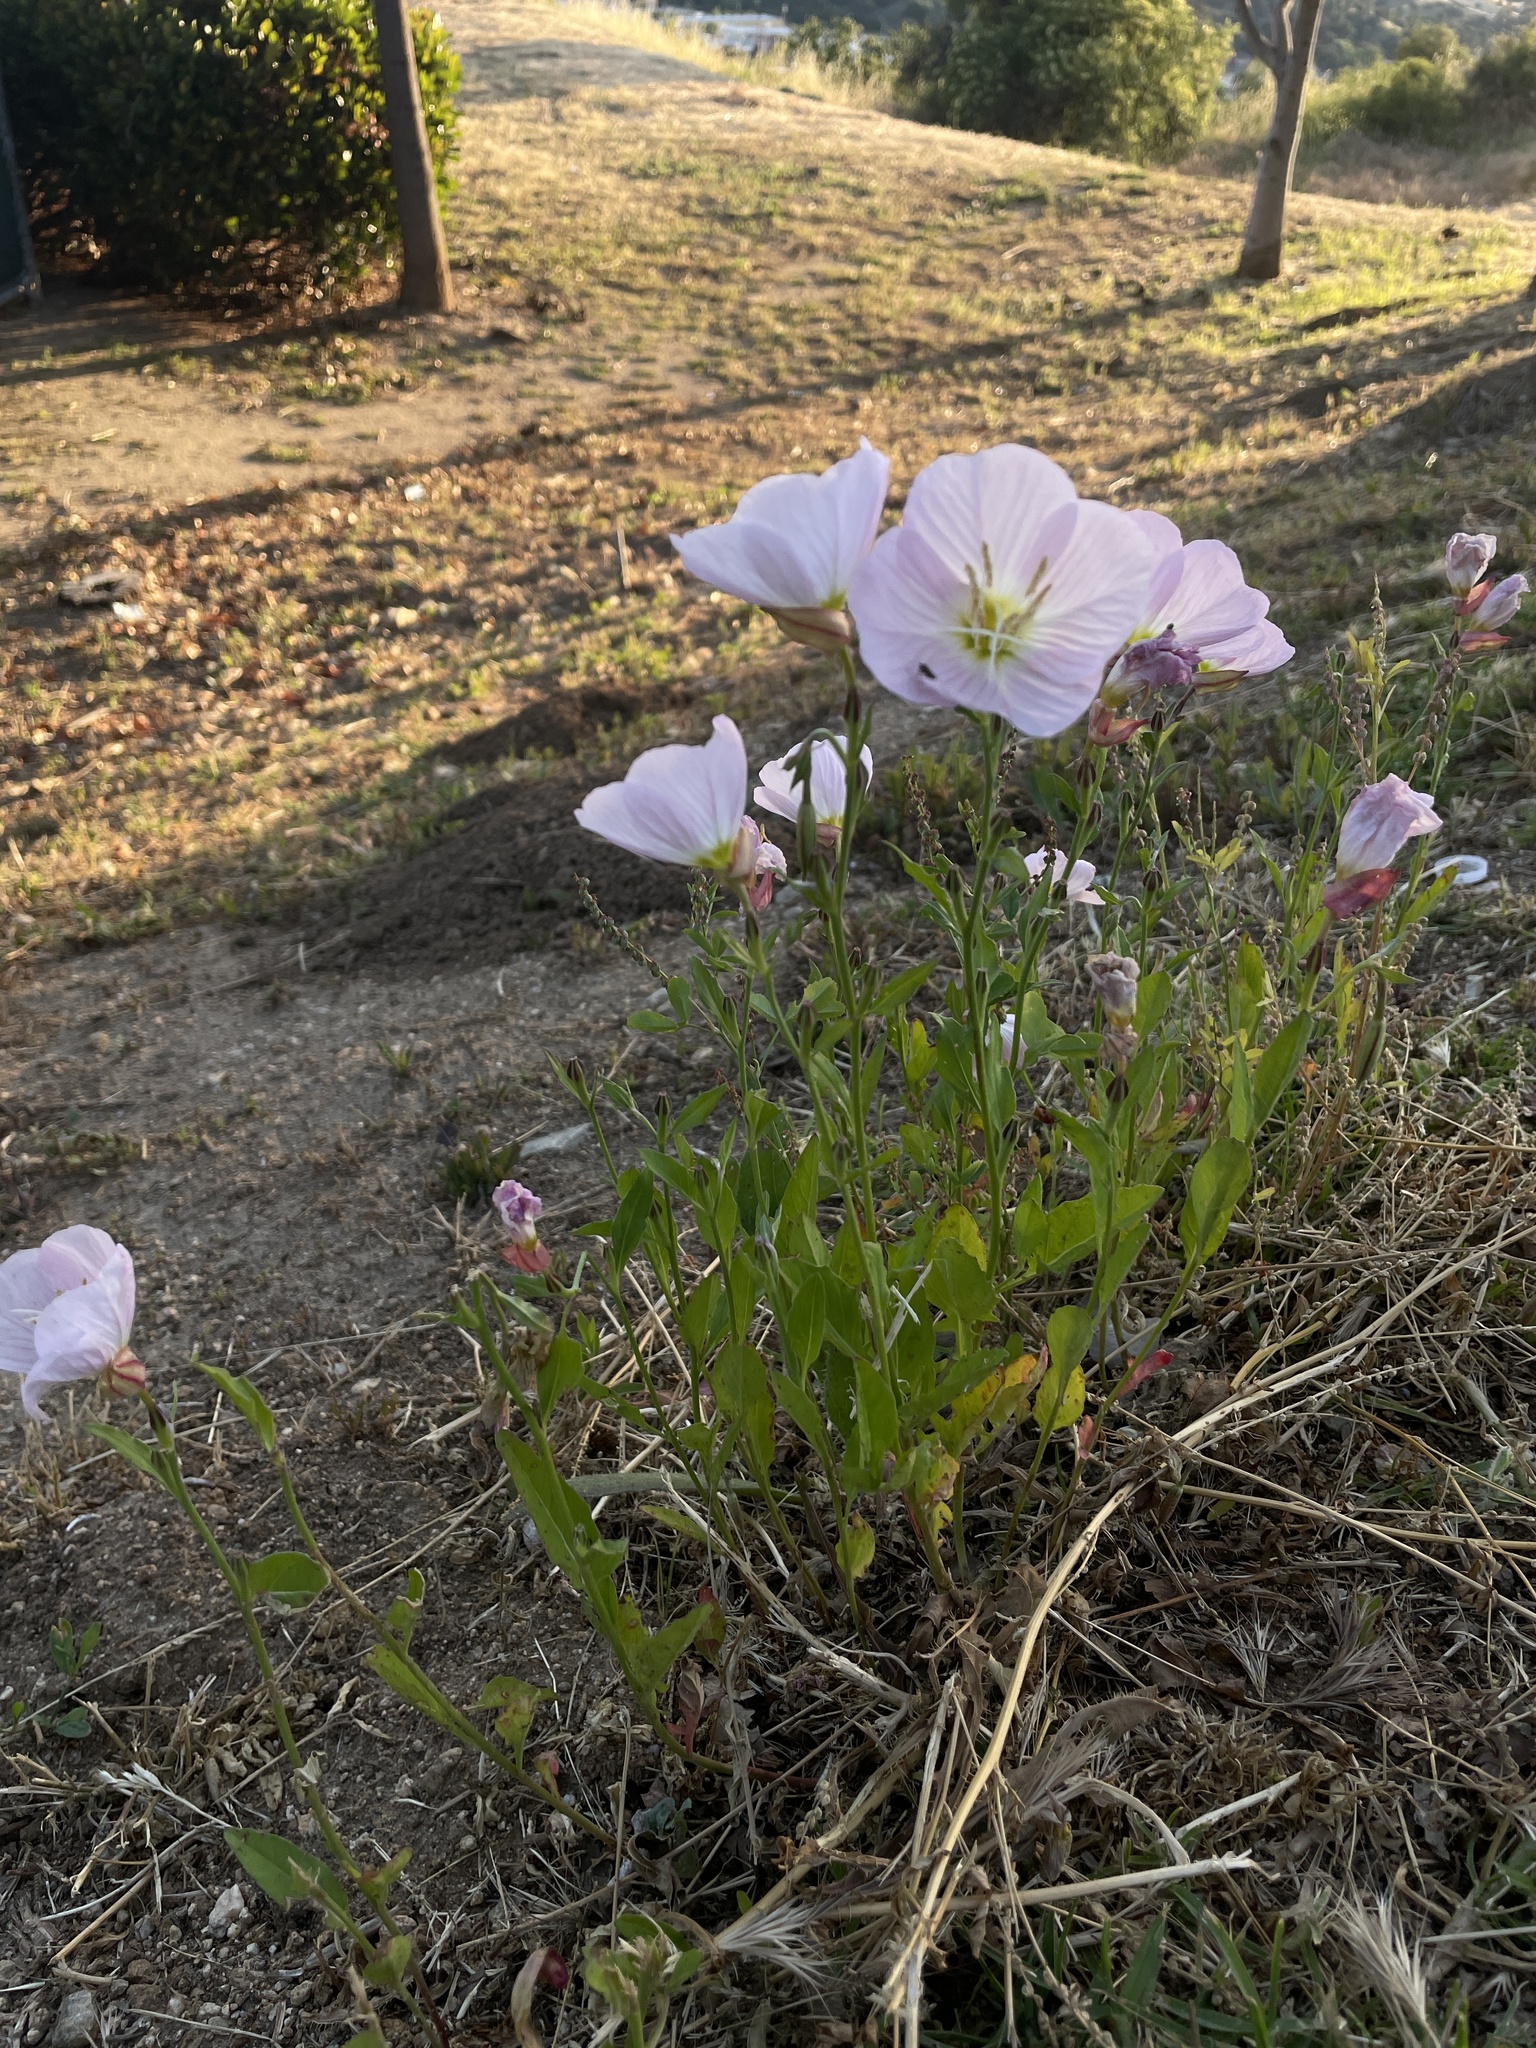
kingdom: Plantae
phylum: Tracheophyta
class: Magnoliopsida
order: Myrtales
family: Onagraceae
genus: Oenothera
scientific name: Oenothera speciosa
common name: White evening-primrose
